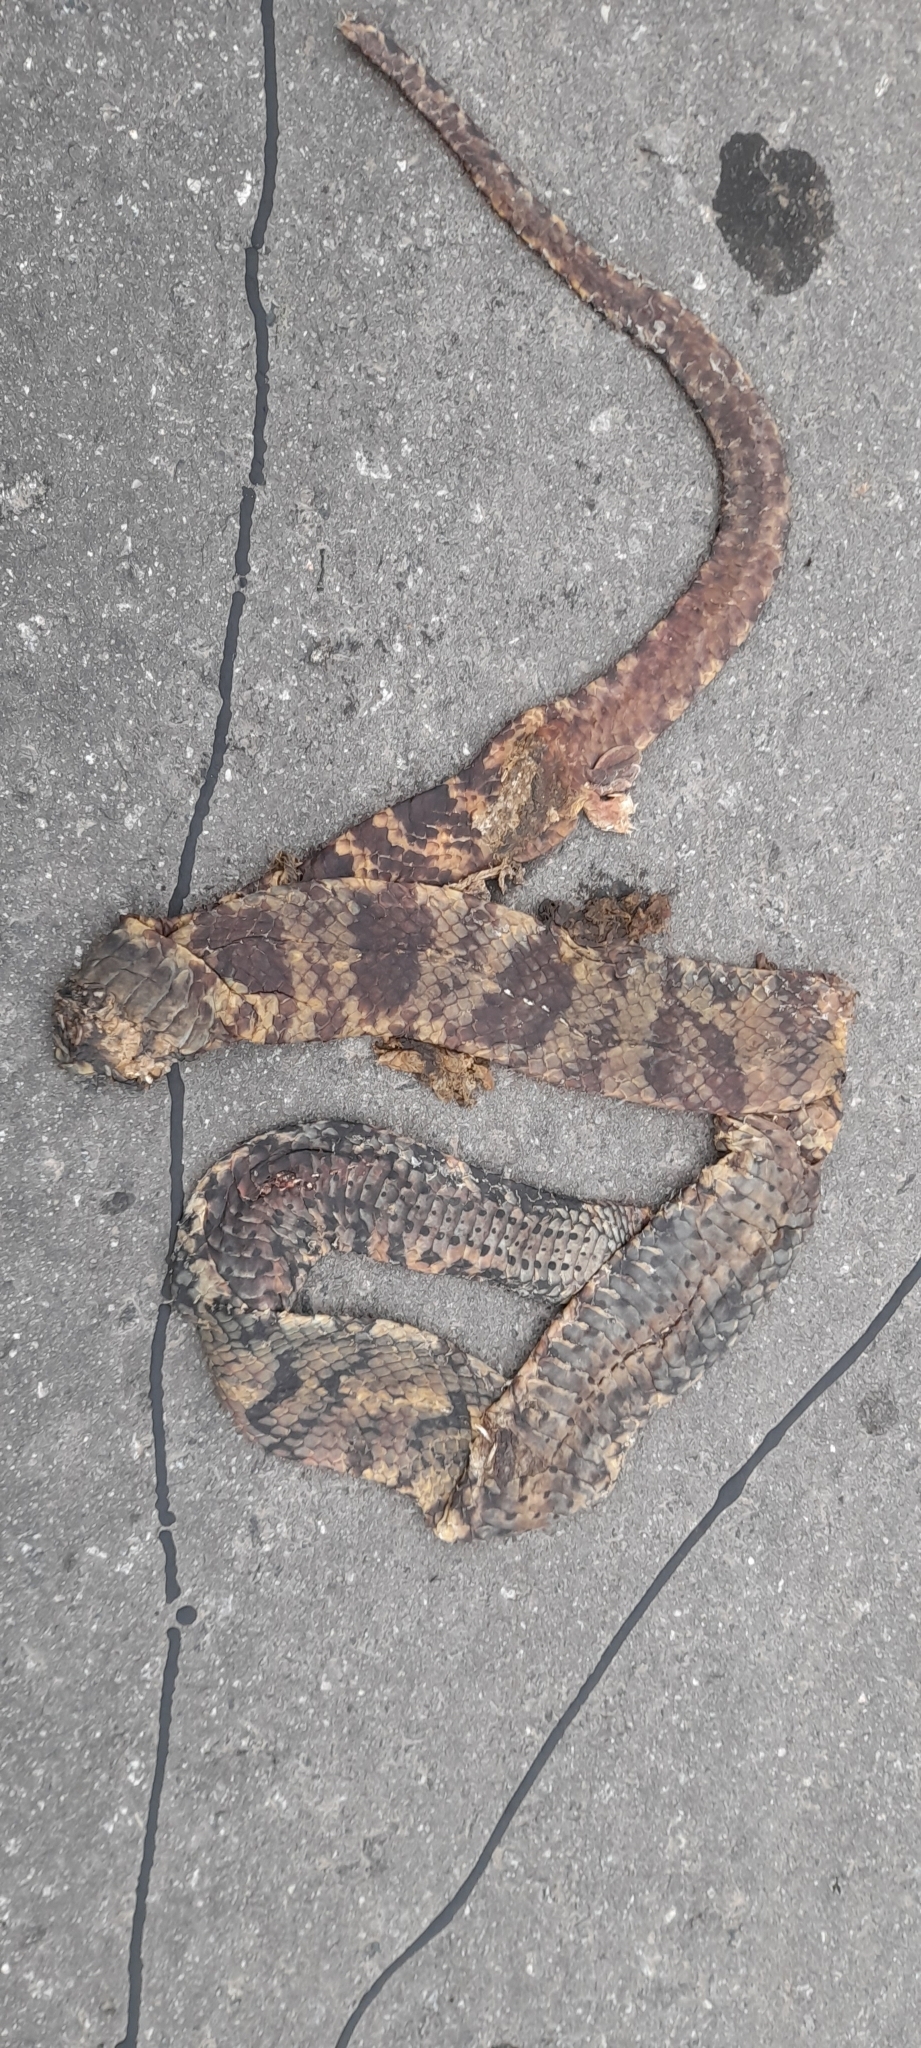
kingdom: Animalia
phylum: Chordata
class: Squamata
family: Colubridae
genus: Hydrodynastes
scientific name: Hydrodynastes gigas
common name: False water cobra
